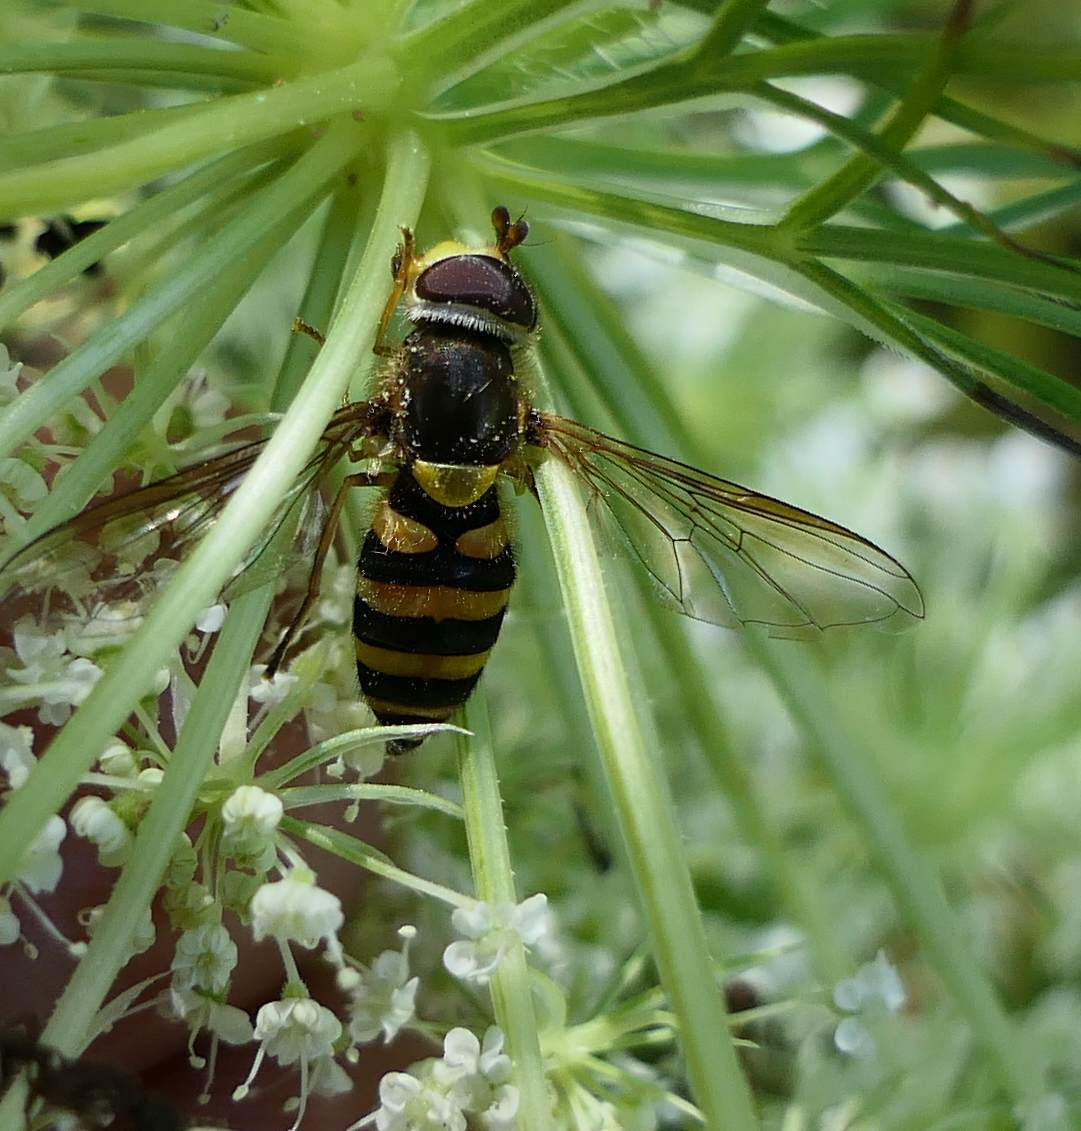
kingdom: Animalia
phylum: Arthropoda
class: Insecta
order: Diptera
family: Syrphidae
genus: Syrphus
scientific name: Syrphus rectus
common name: Yellow-legged flower fly
